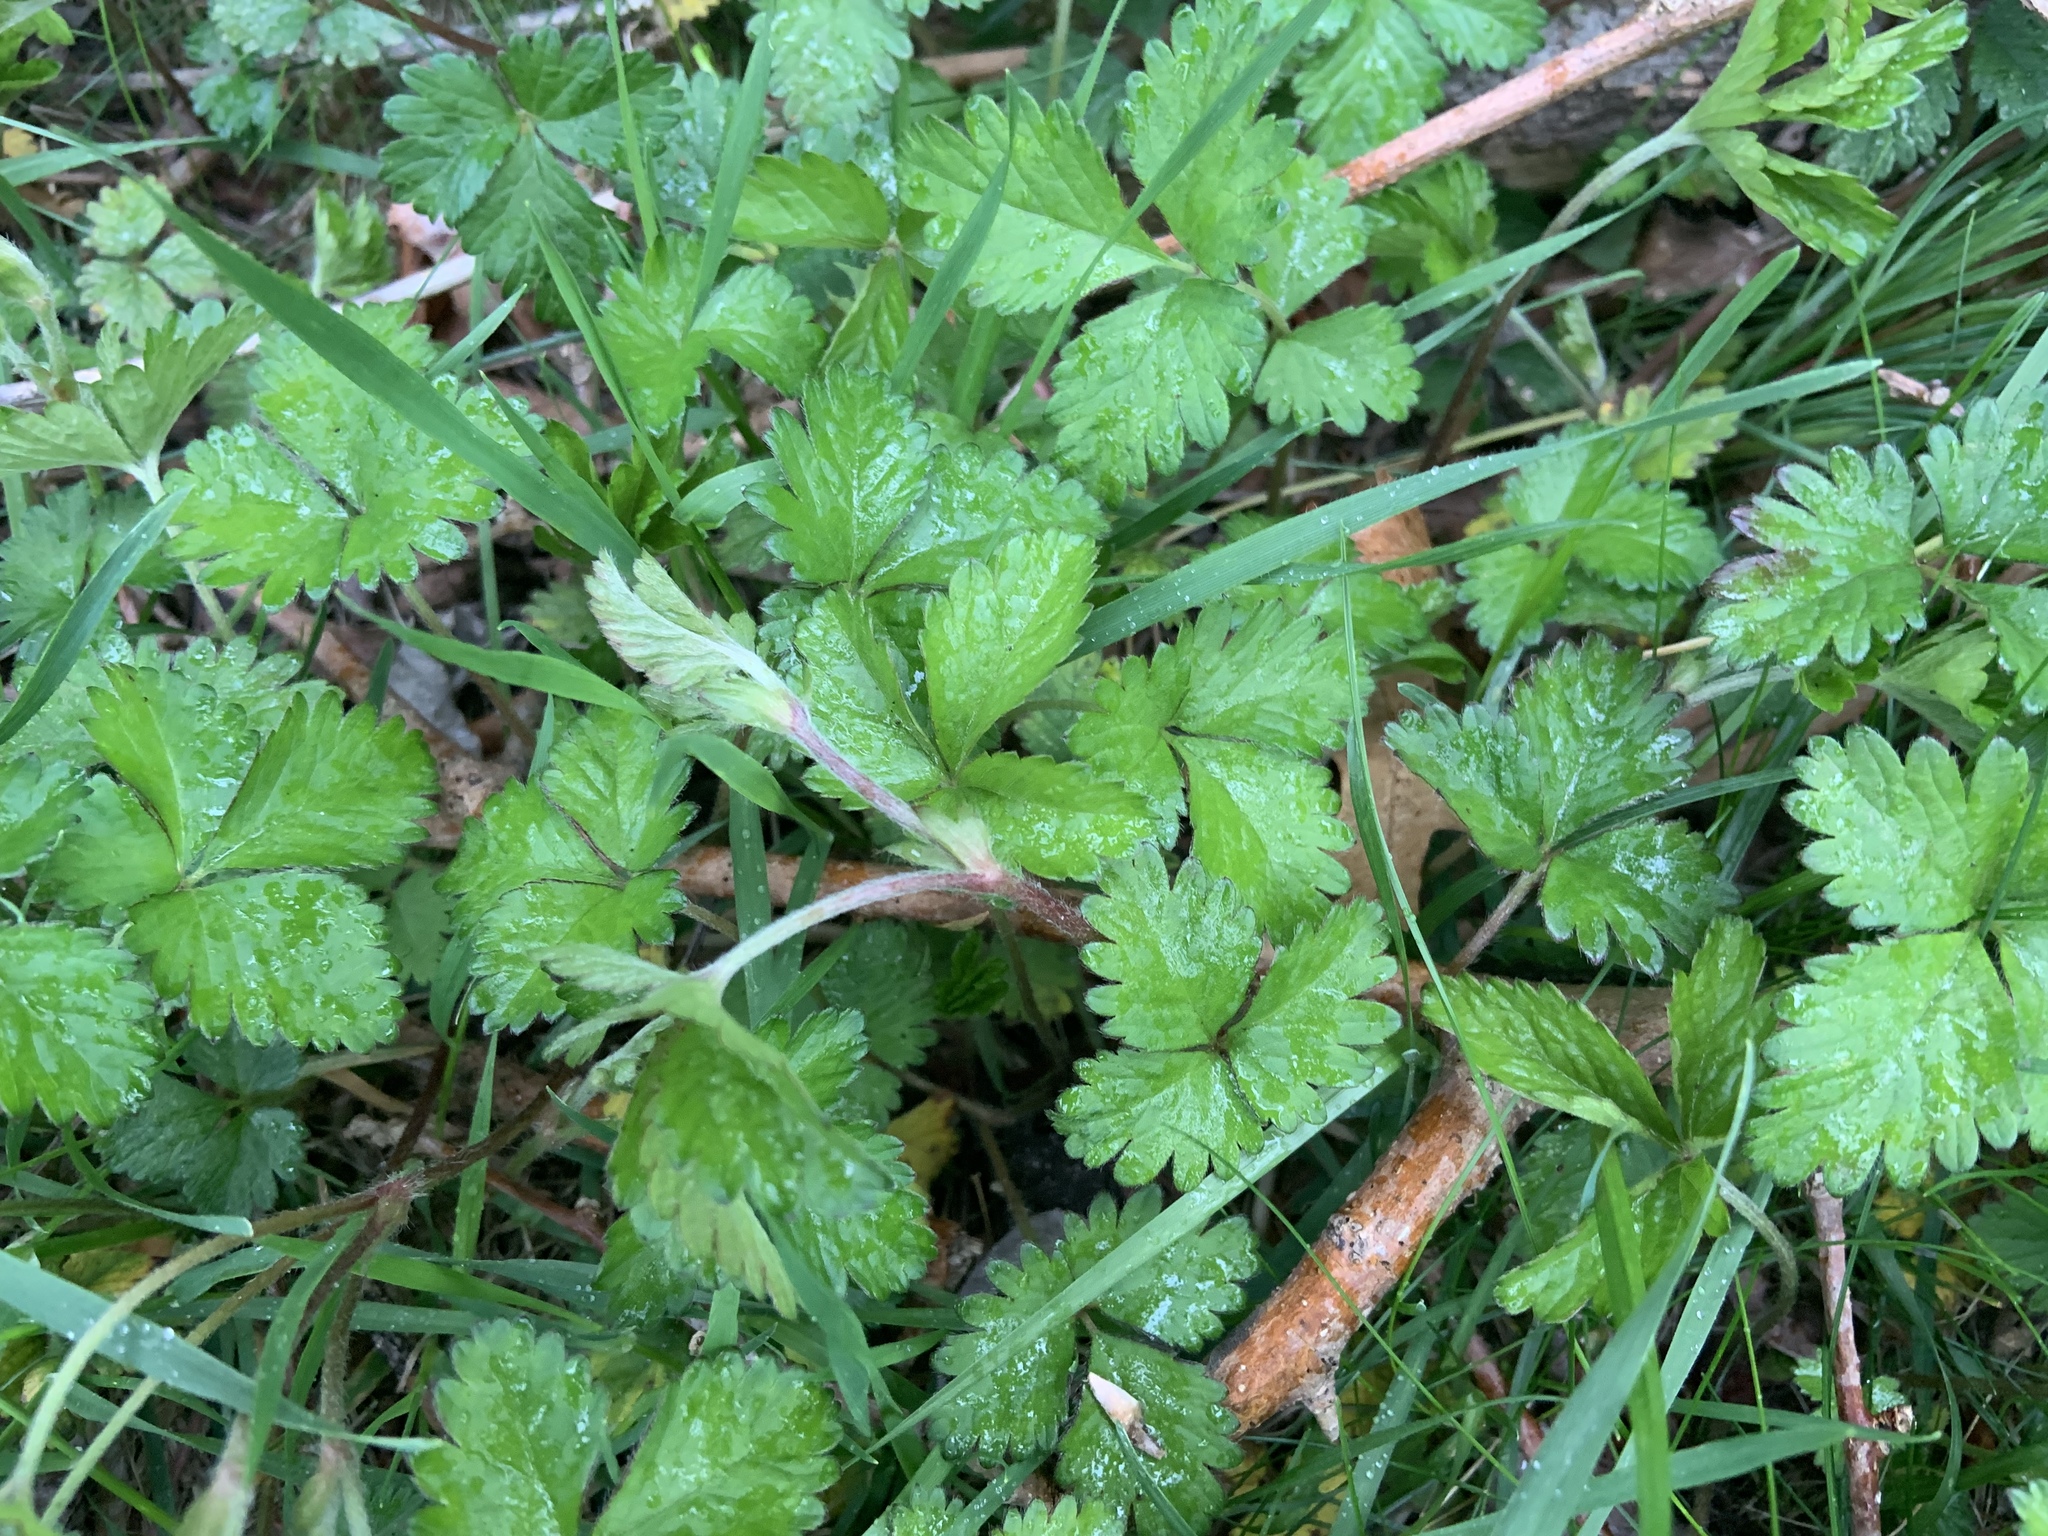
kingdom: Plantae
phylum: Tracheophyta
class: Magnoliopsida
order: Rosales
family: Rosaceae
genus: Potentilla
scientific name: Potentilla indica
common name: Yellow-flowered strawberry
